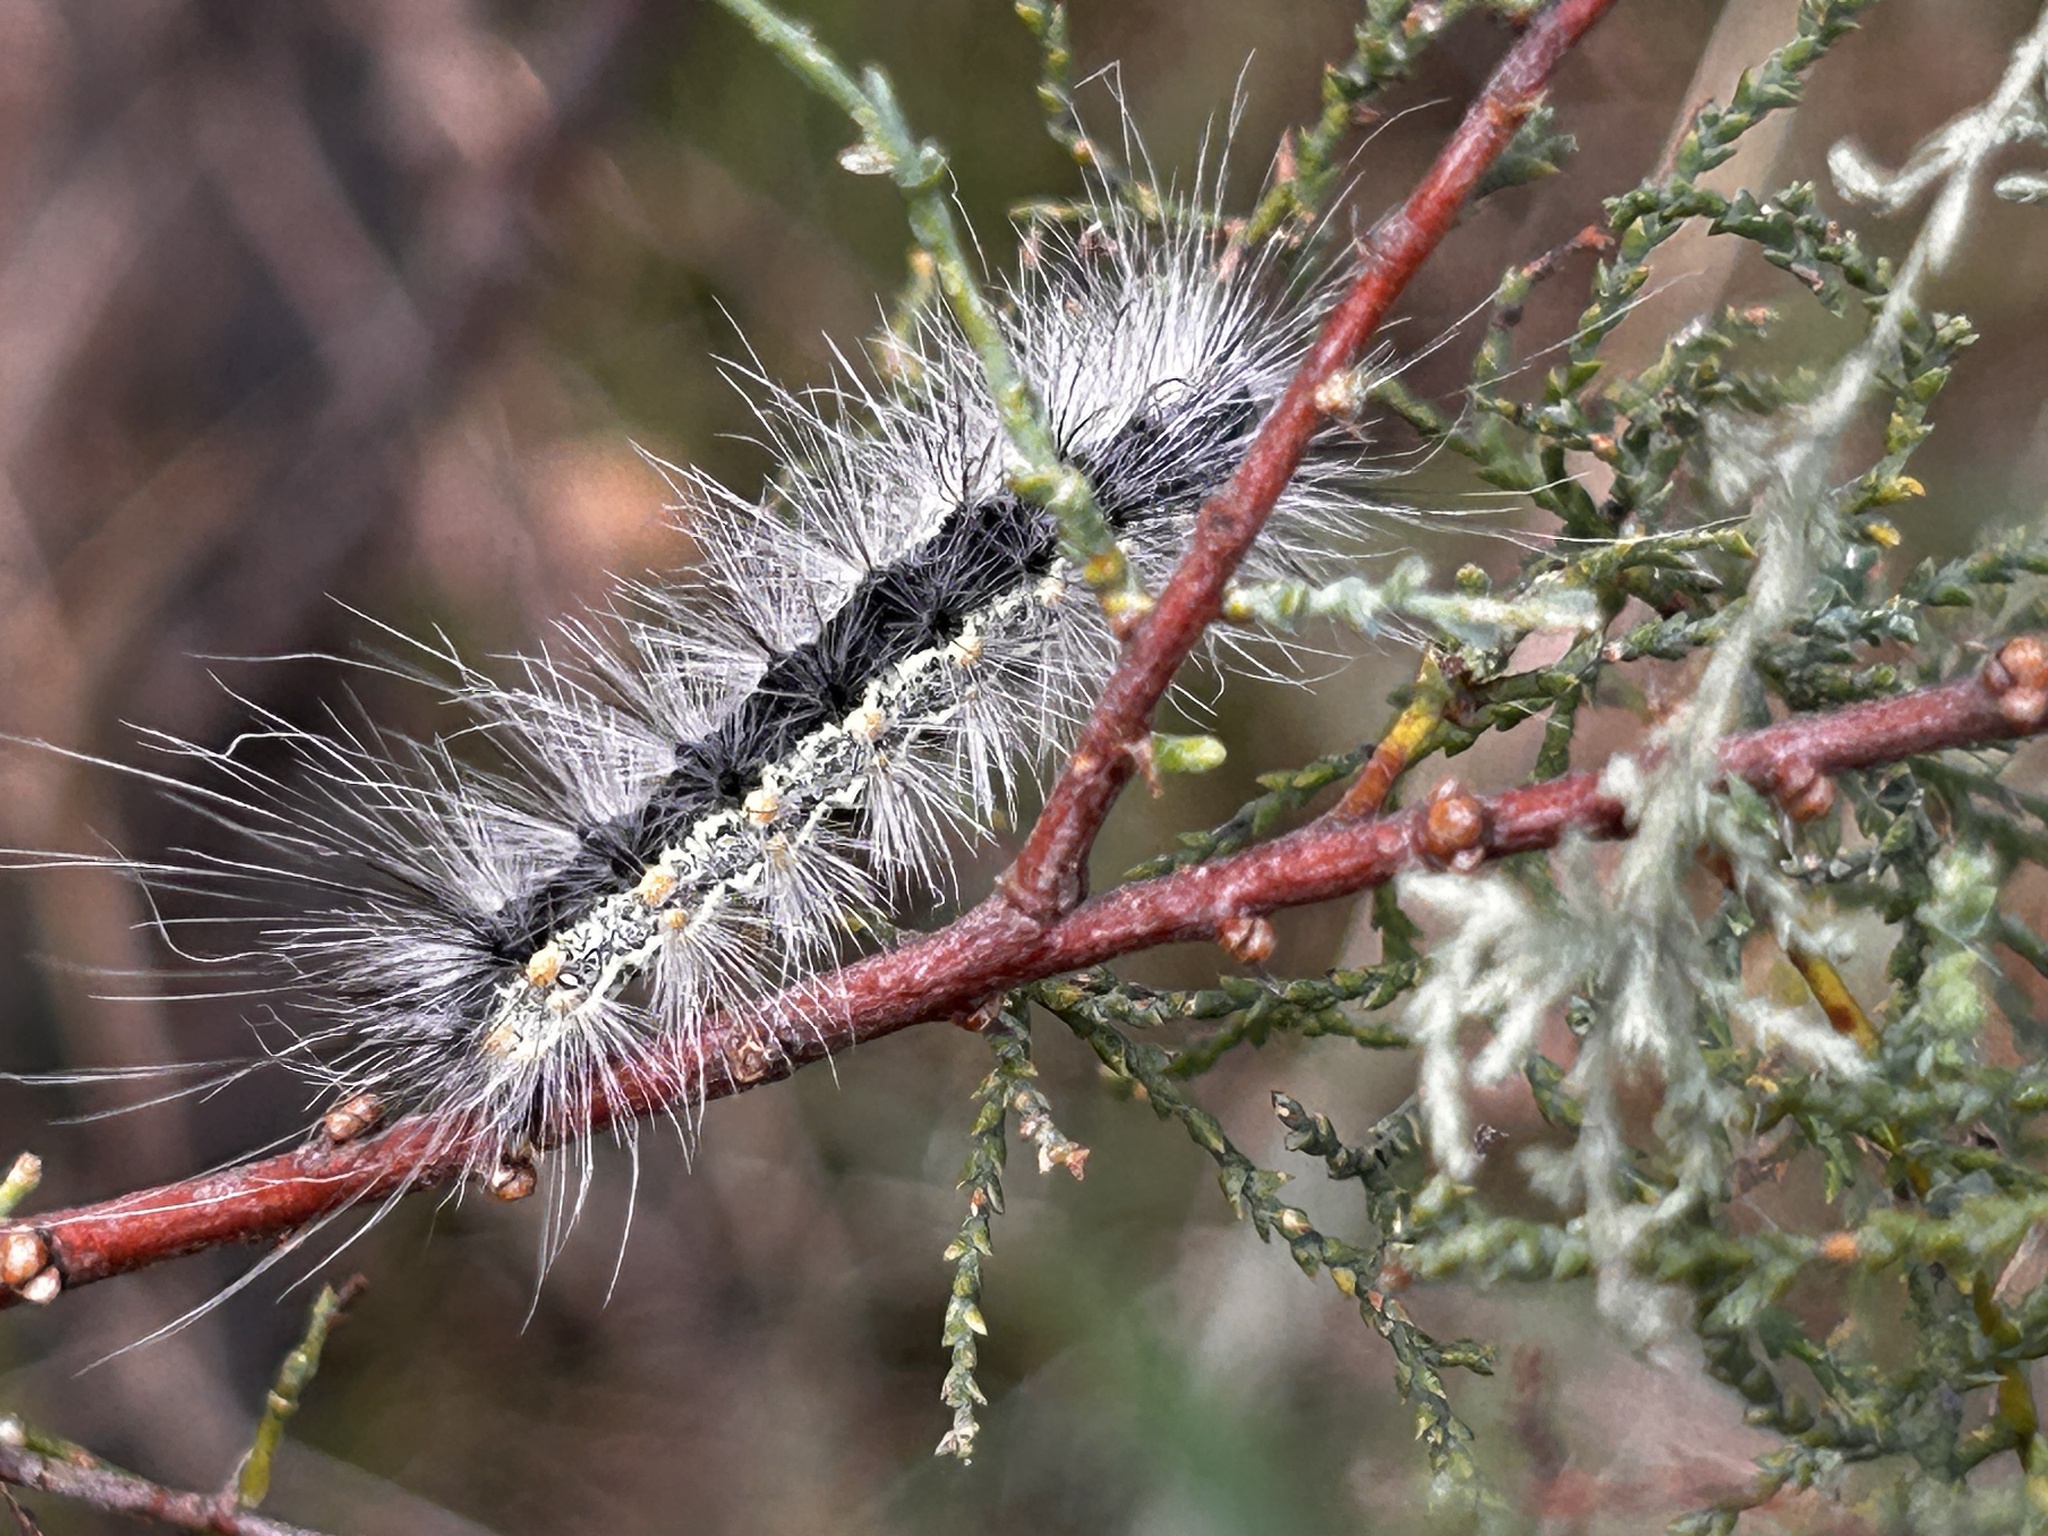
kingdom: Animalia
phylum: Arthropoda
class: Insecta
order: Lepidoptera
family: Erebidae
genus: Hyphantria
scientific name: Hyphantria cunea
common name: American white moth
